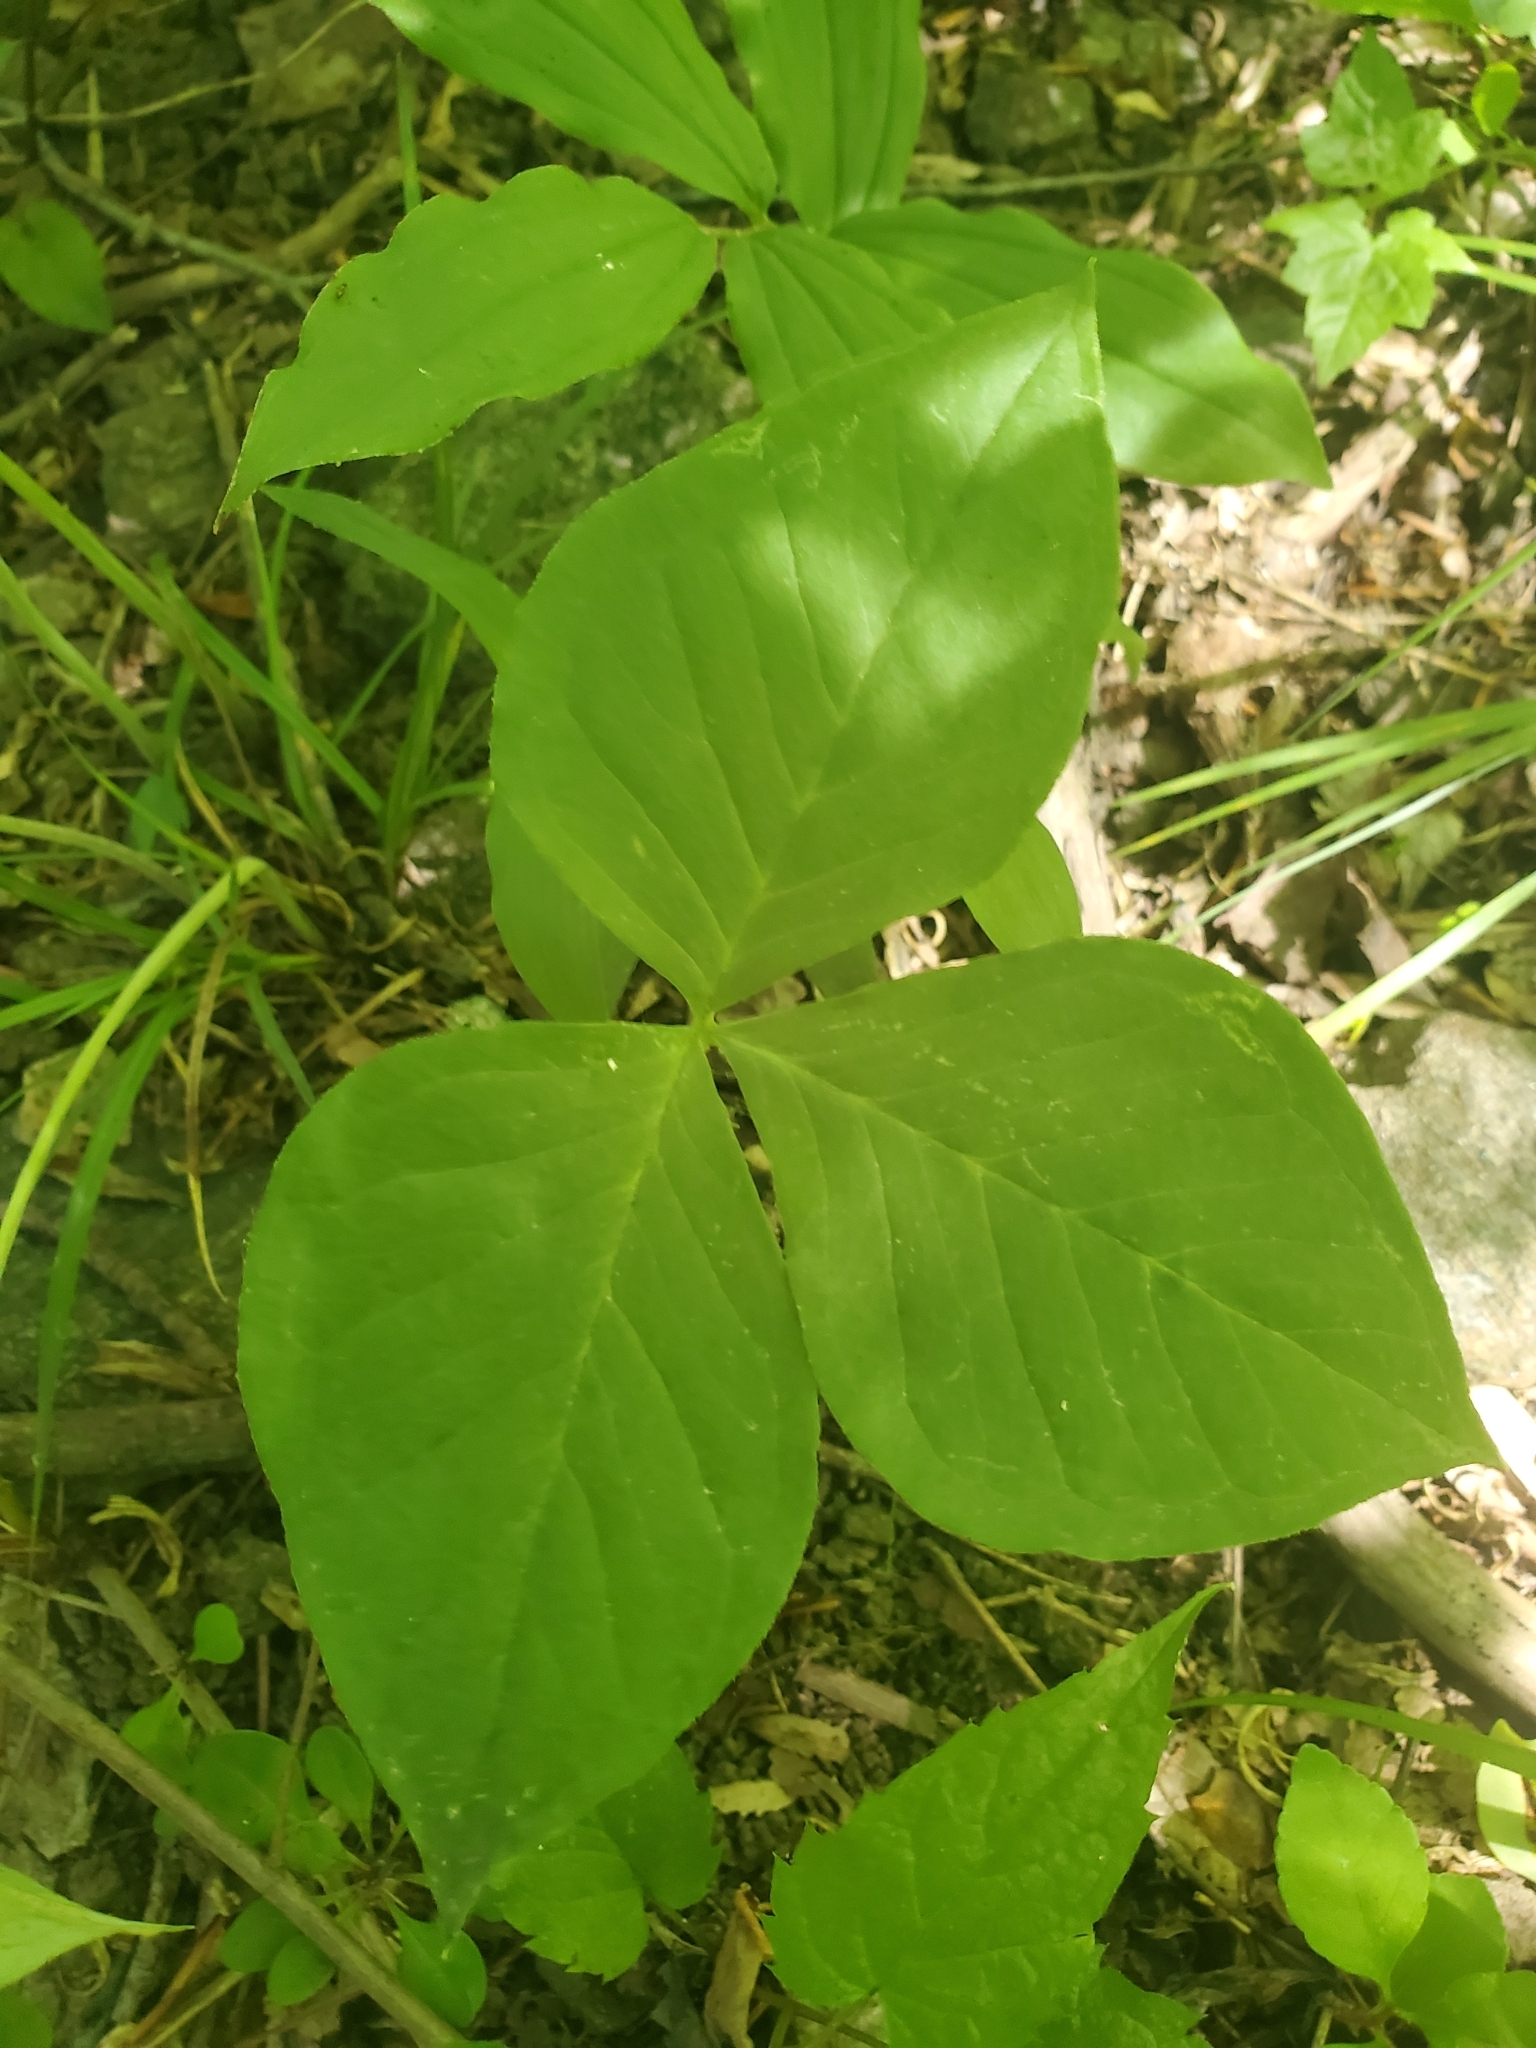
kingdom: Plantae
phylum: Tracheophyta
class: Liliopsida
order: Alismatales
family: Araceae
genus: Arisaema
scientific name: Arisaema triphyllum
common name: Jack-in-the-pulpit
